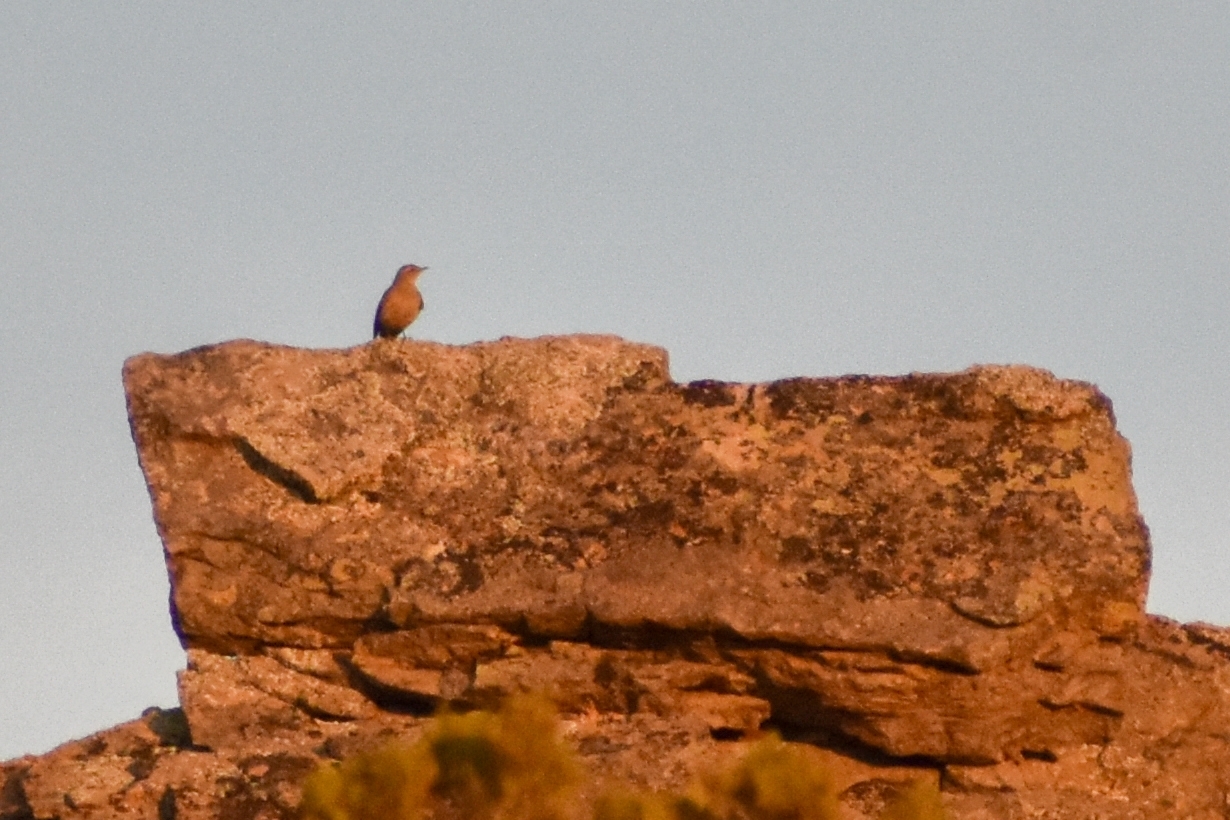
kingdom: Animalia
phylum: Chordata
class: Aves
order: Passeriformes
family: Furnariidae
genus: Geositta
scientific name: Geositta rufipennis
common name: Rufous-banded miner
